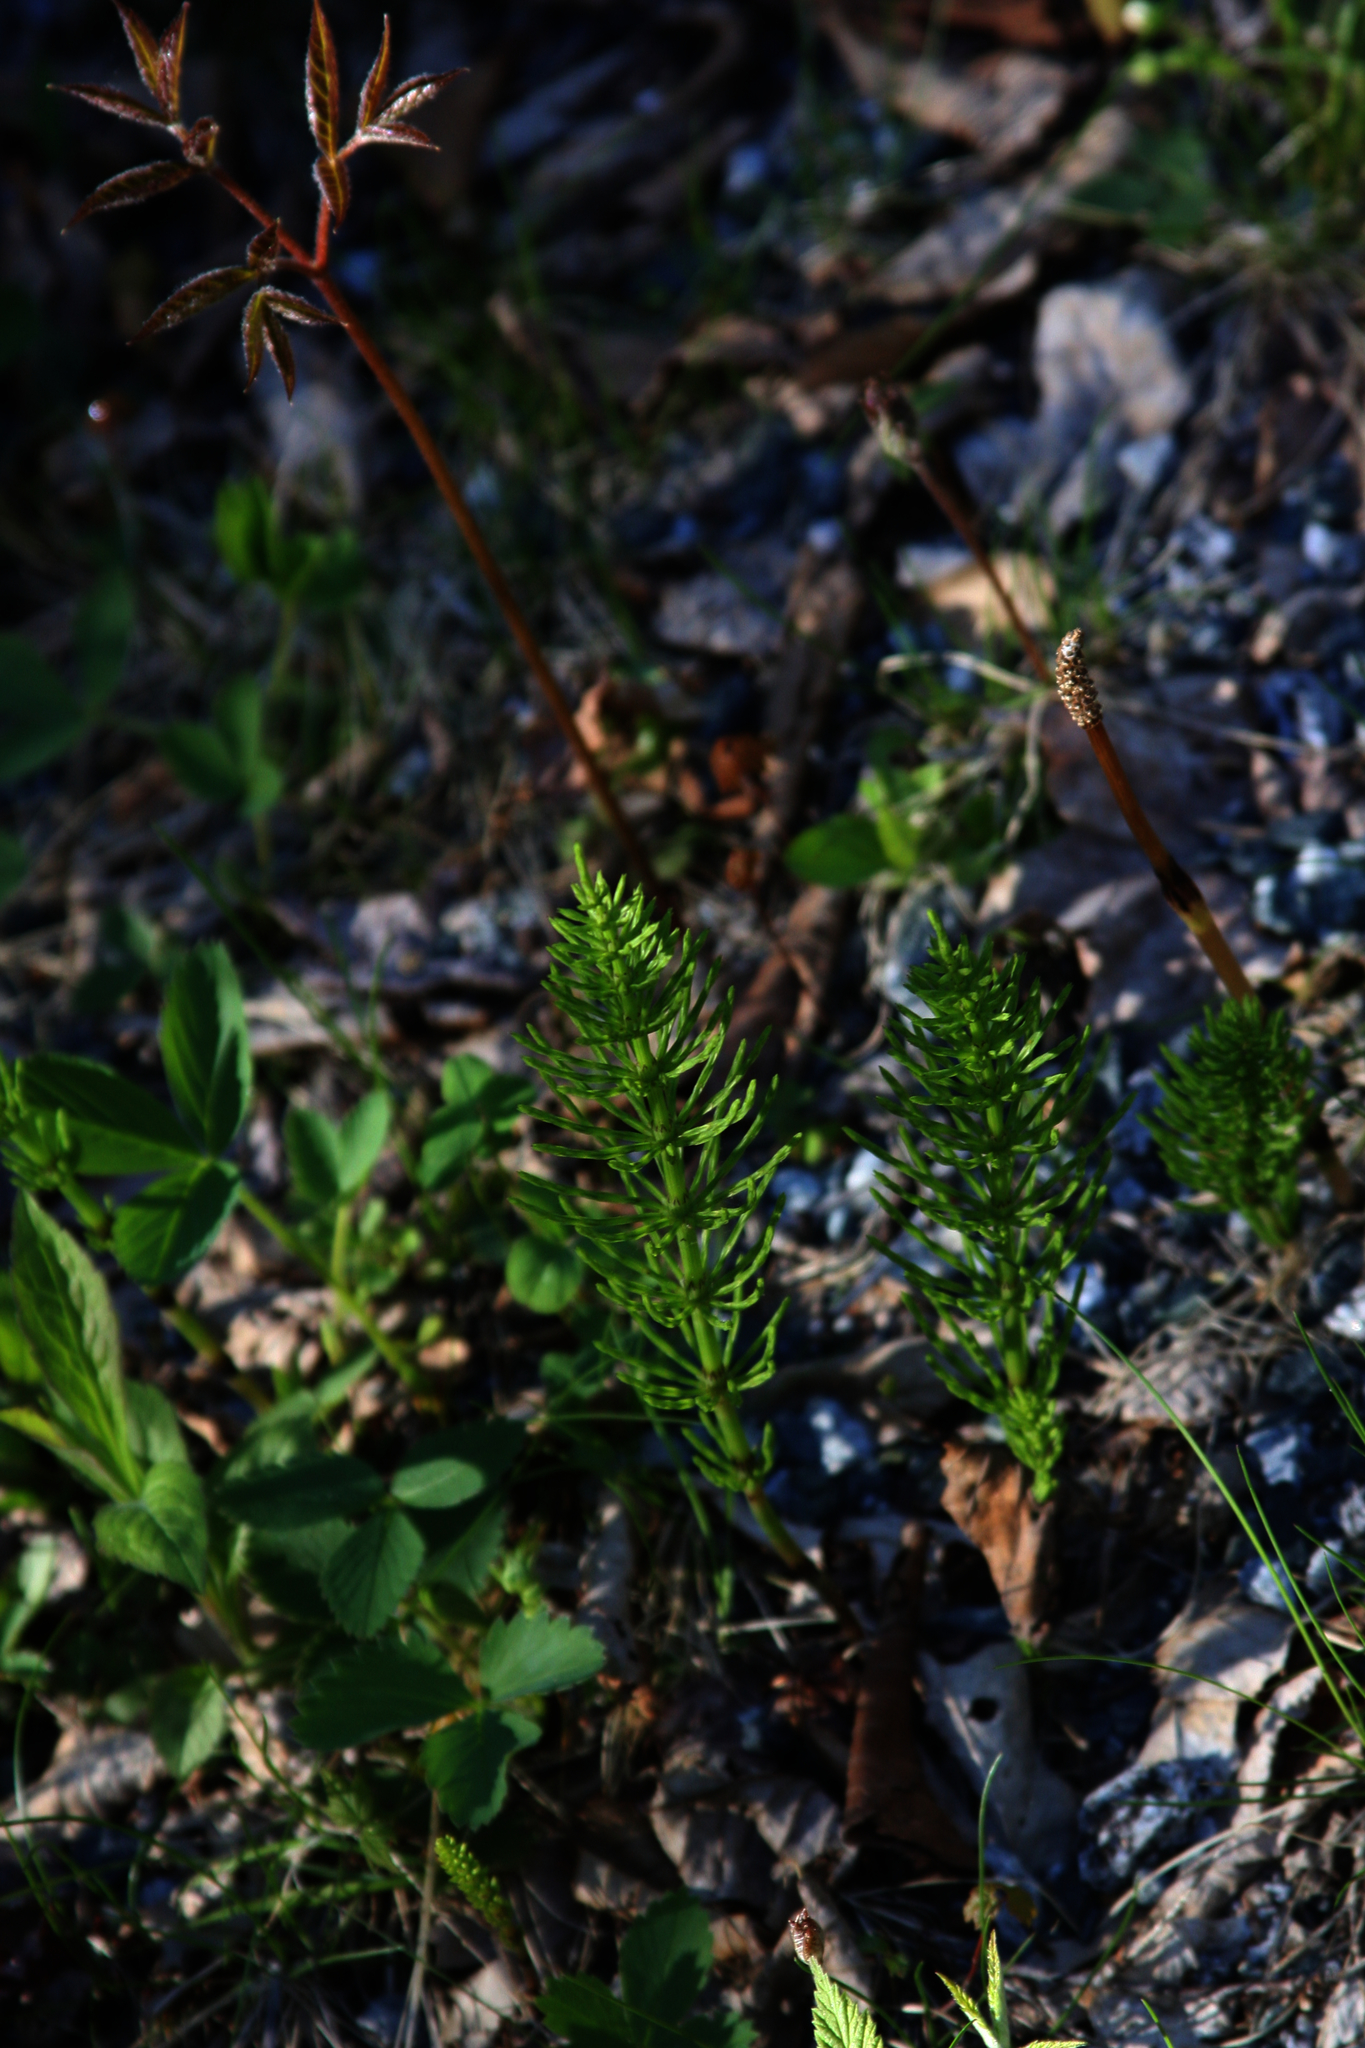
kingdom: Plantae
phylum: Tracheophyta
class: Magnoliopsida
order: Apiales
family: Araliaceae
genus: Aralia
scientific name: Aralia nudicaulis
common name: Wild sarsaparilla
